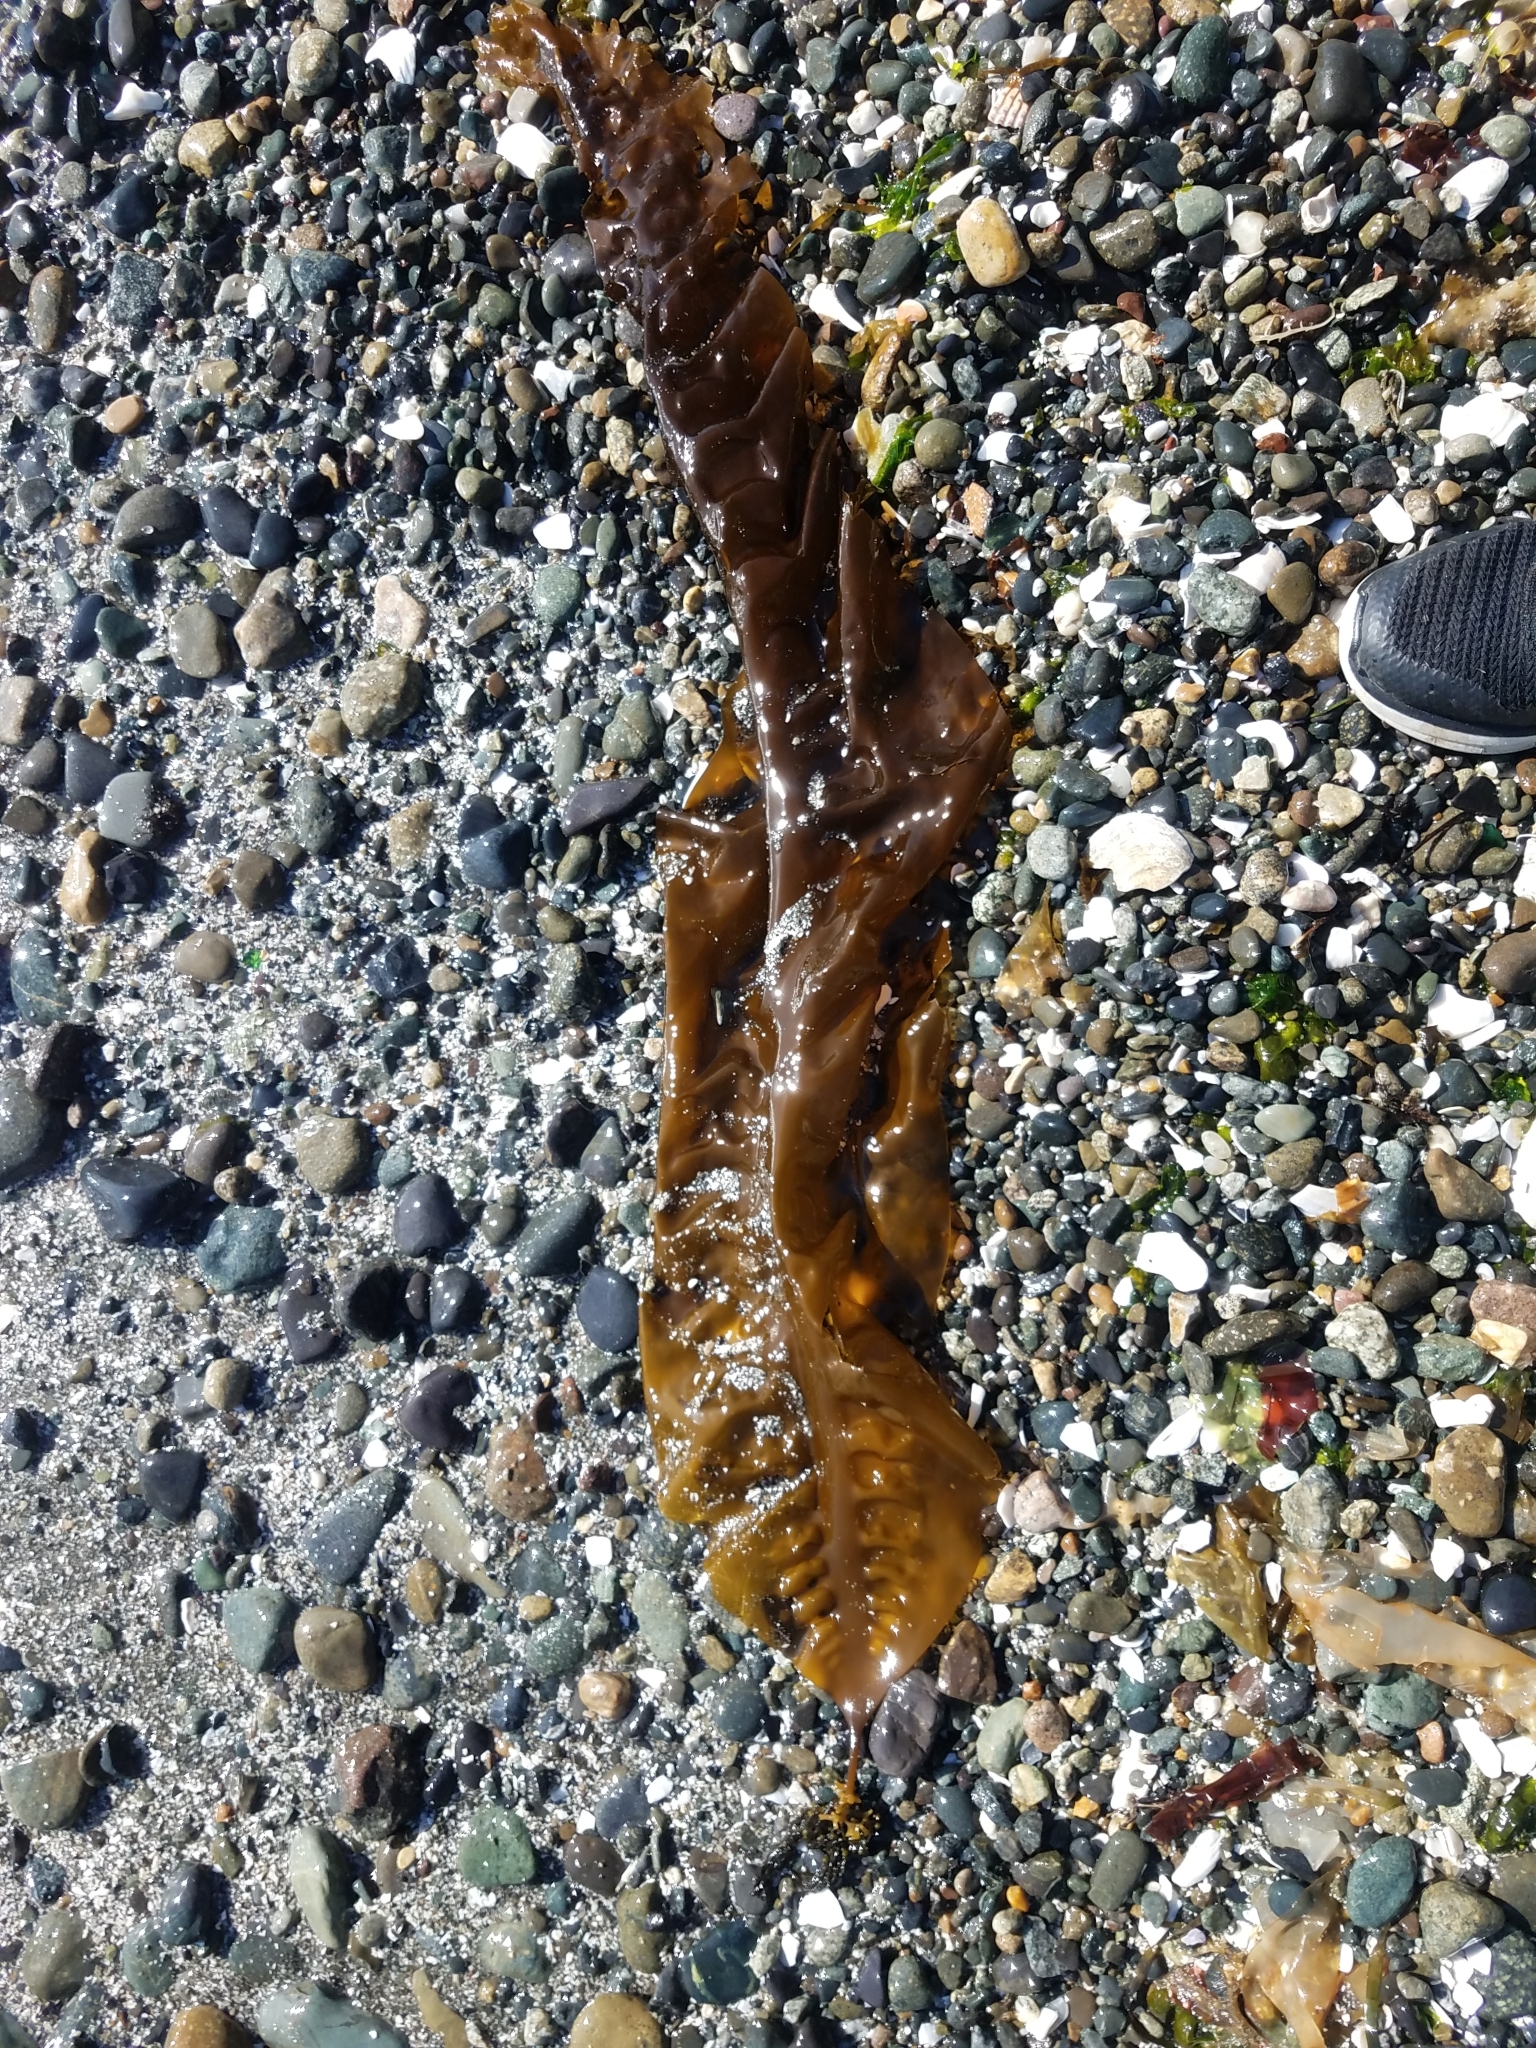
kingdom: Chromista
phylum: Ochrophyta
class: Phaeophyceae
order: Laminariales
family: Laminariaceae
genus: Saccharina
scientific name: Saccharina latissima
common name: Poor man's weather glass
